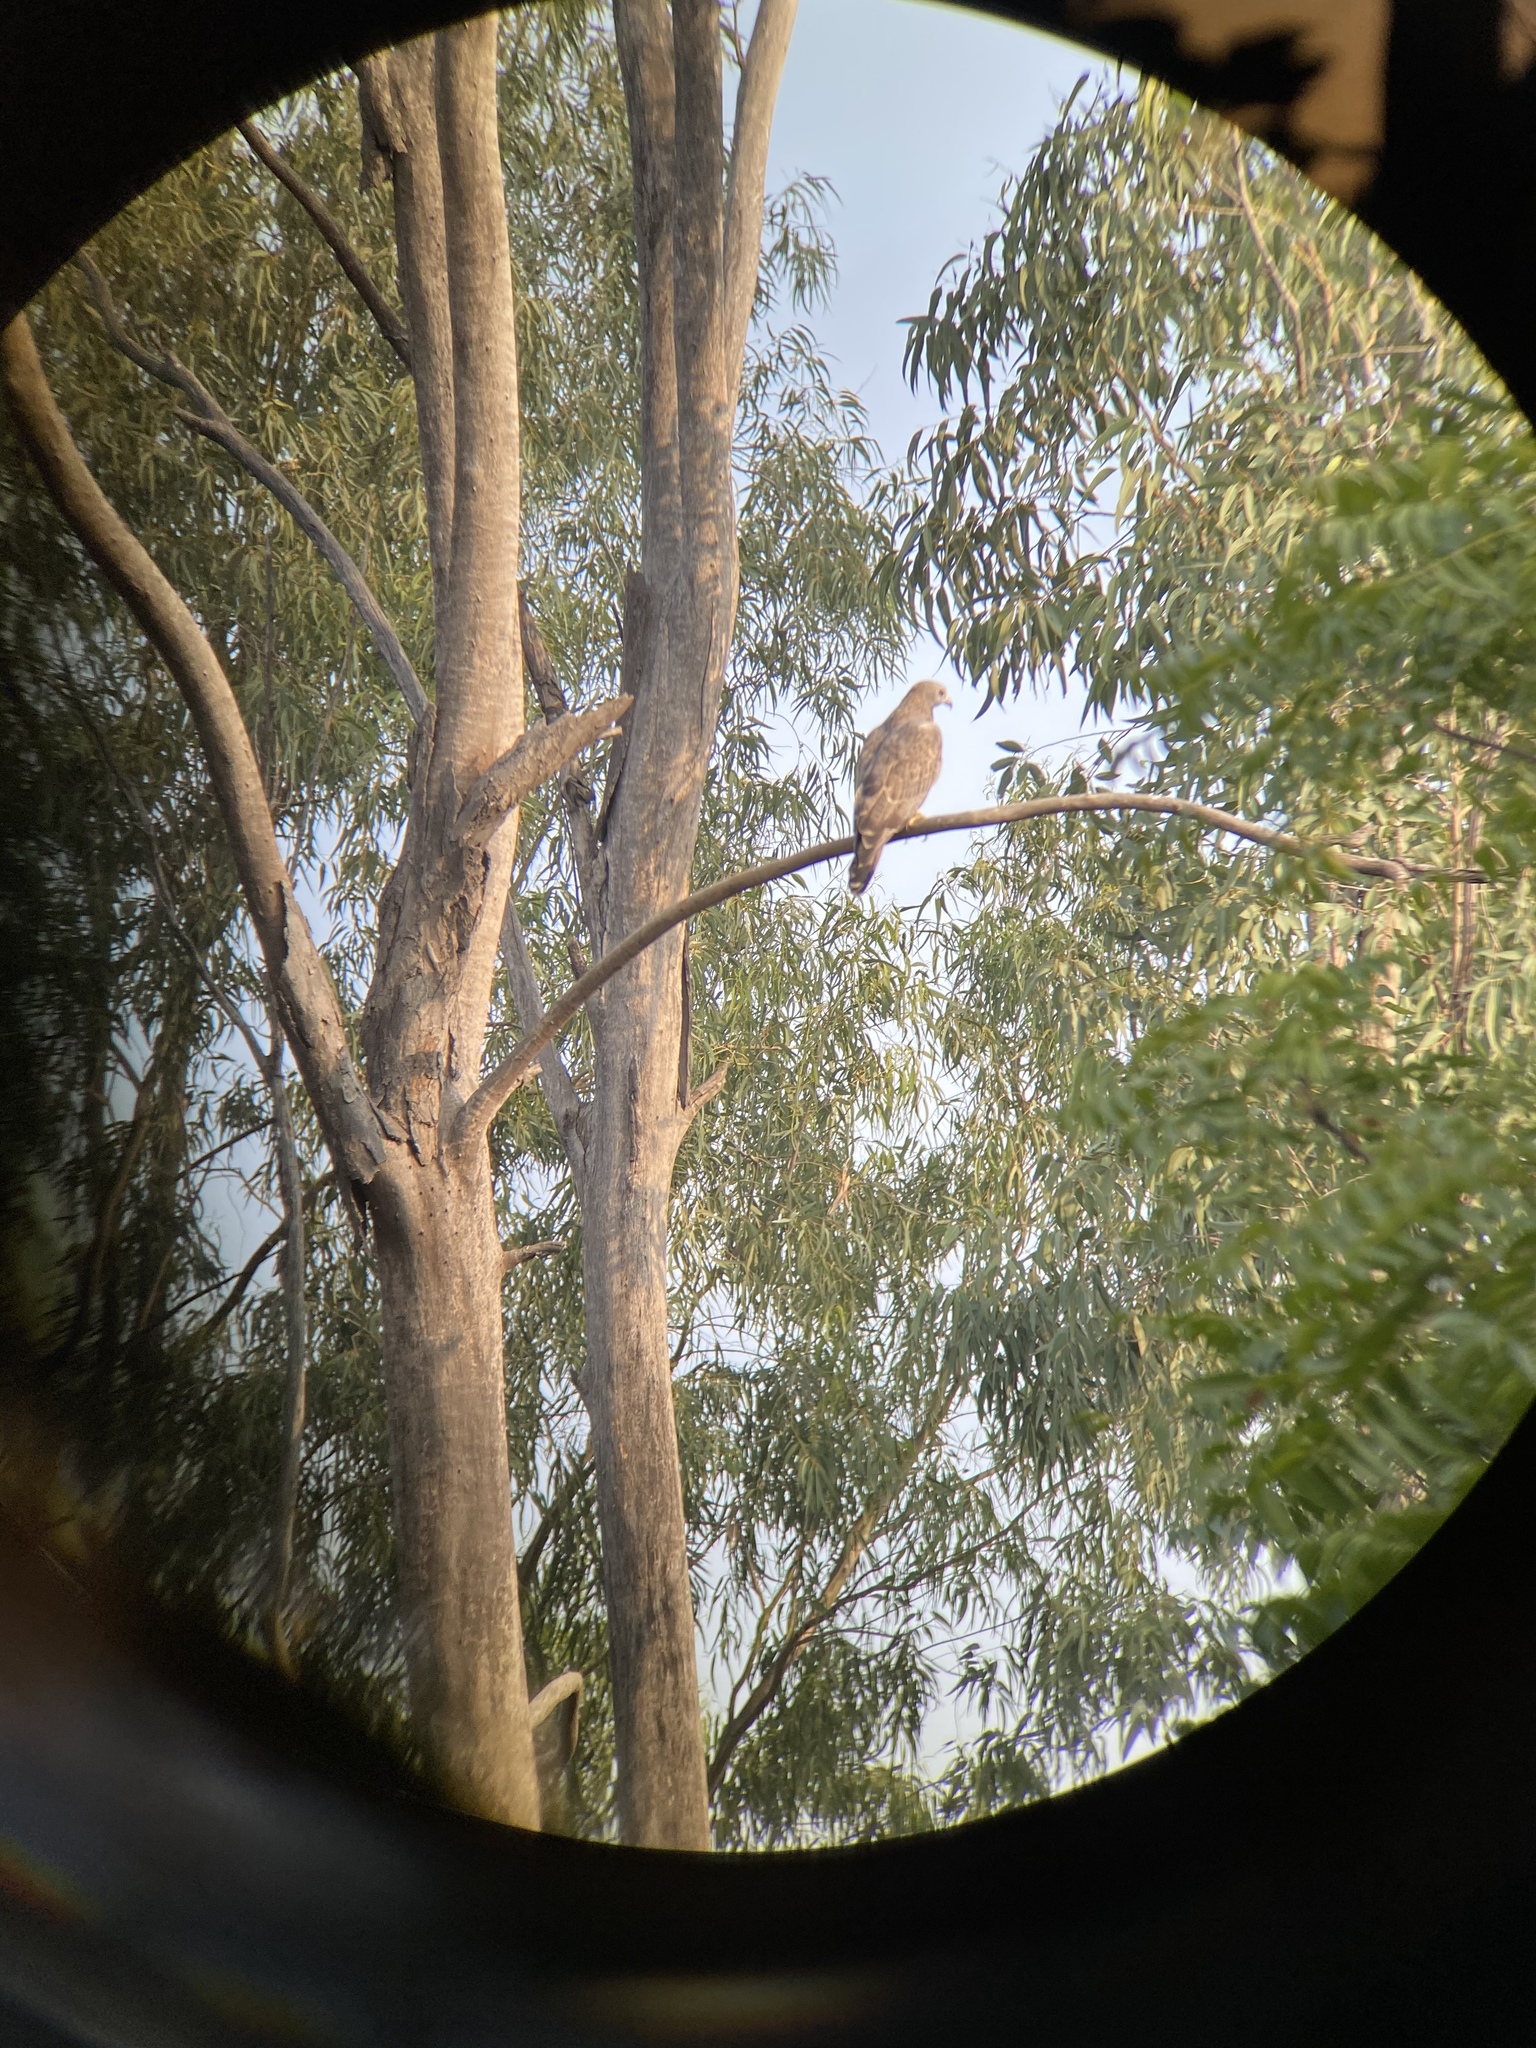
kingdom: Animalia
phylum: Chordata
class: Aves
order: Accipitriformes
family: Accipitridae
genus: Pernis
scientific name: Pernis ptilorhynchus
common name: Crested honey buzzard
